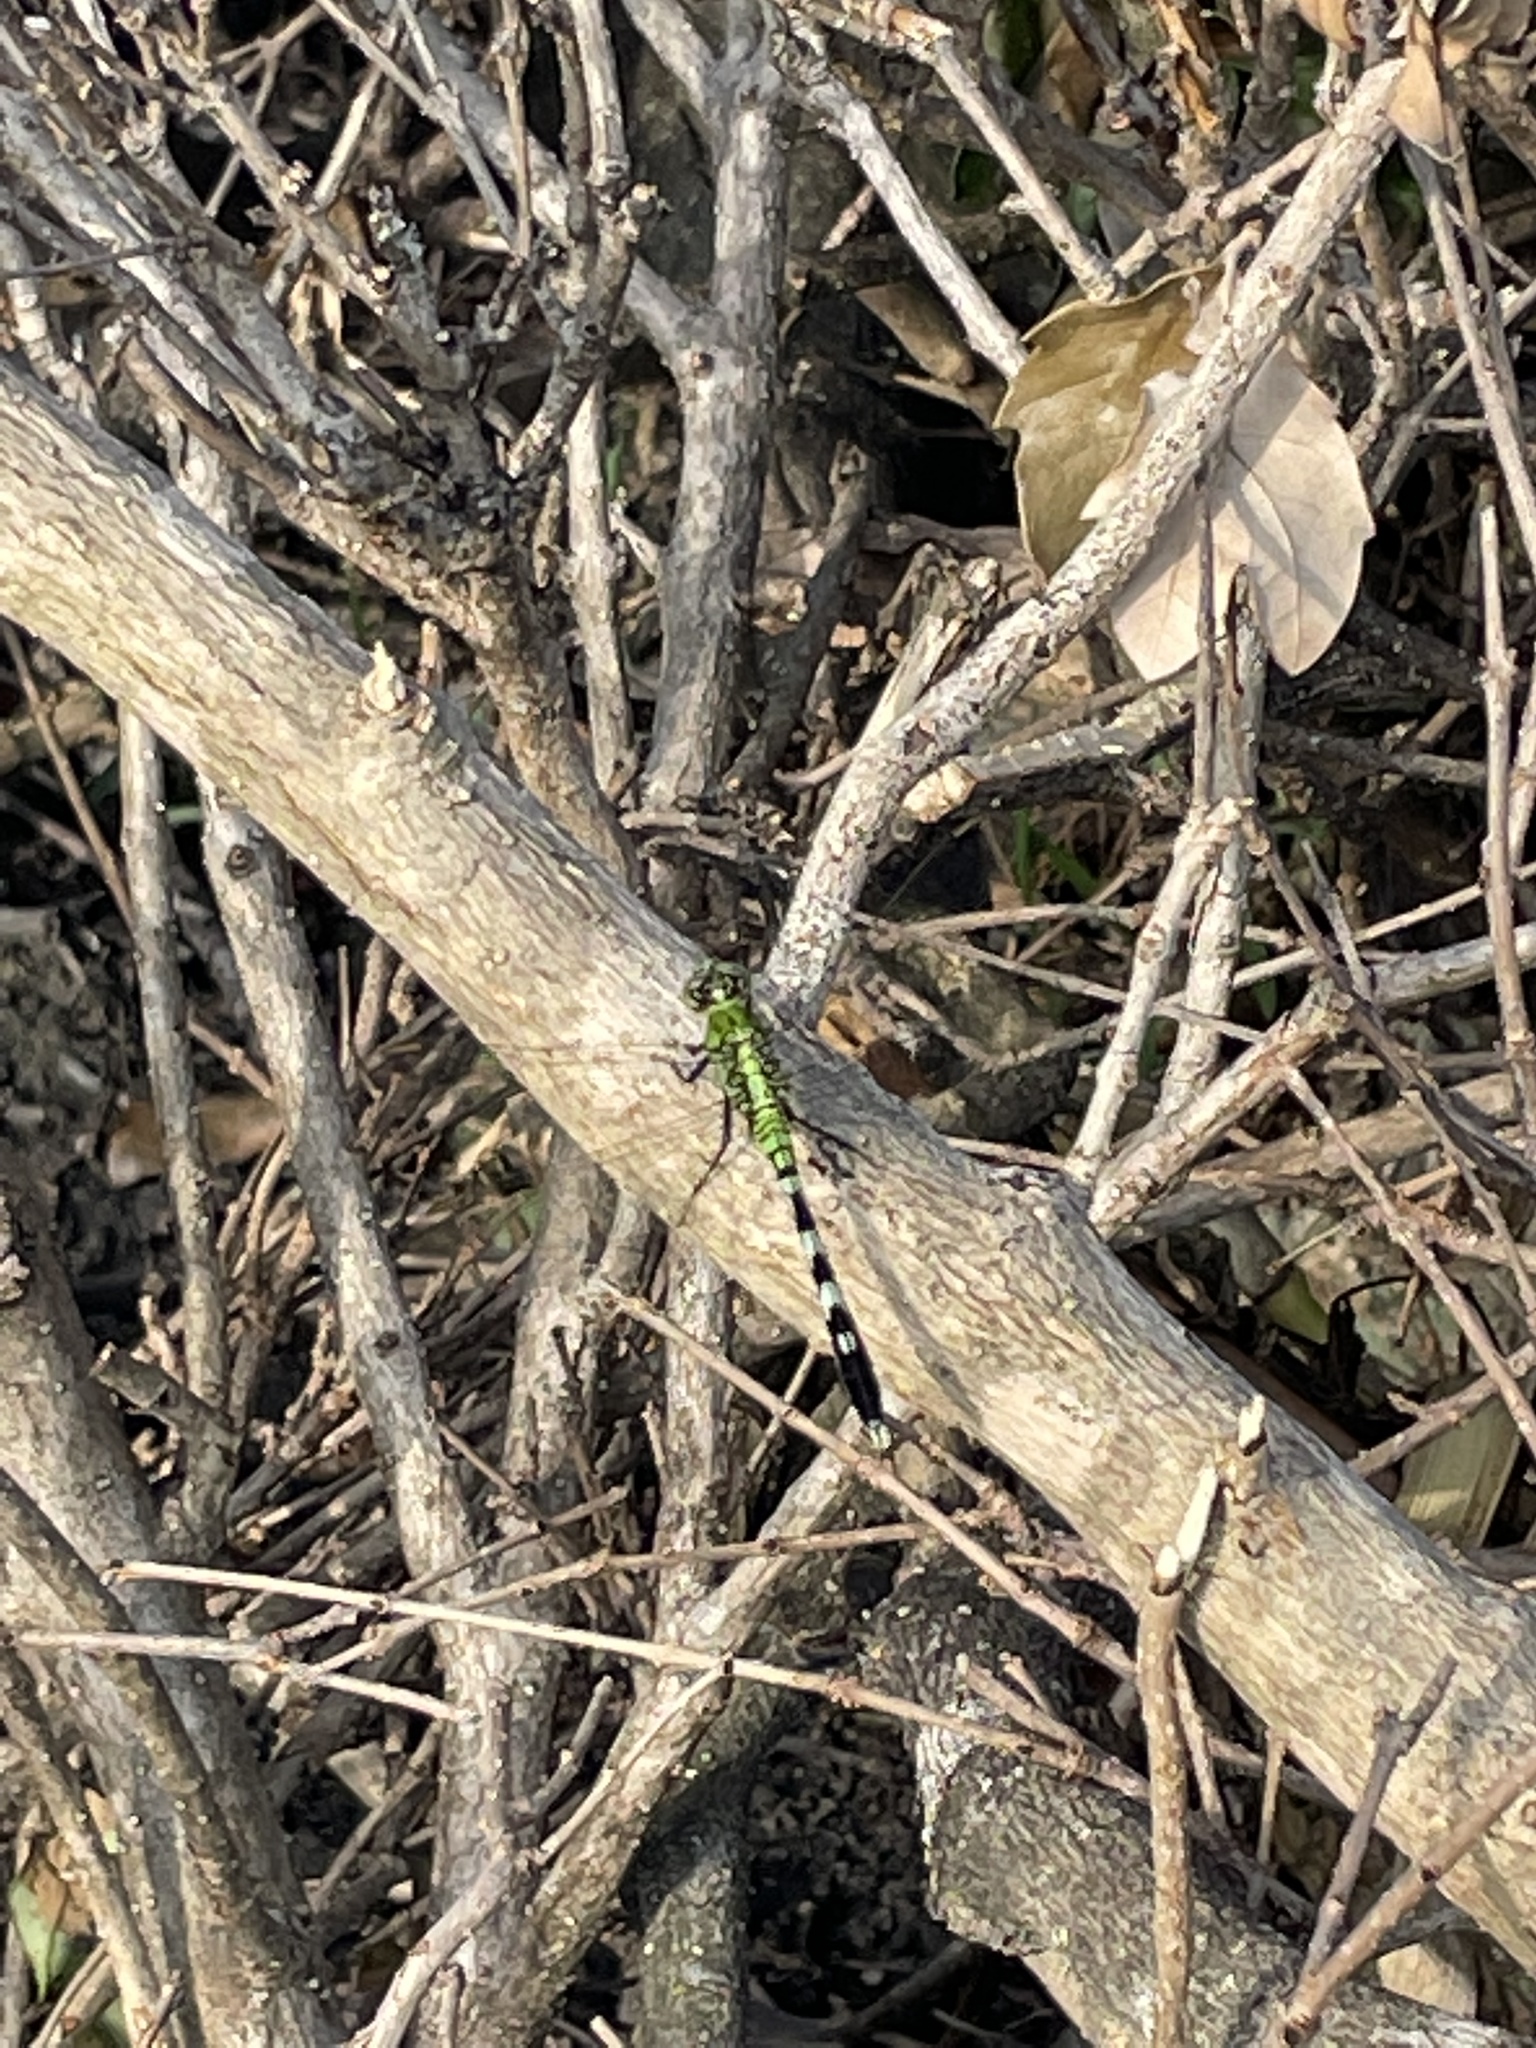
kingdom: Animalia
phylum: Arthropoda
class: Insecta
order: Odonata
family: Libellulidae
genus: Erythemis
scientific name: Erythemis simplicicollis
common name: Eastern pondhawk
